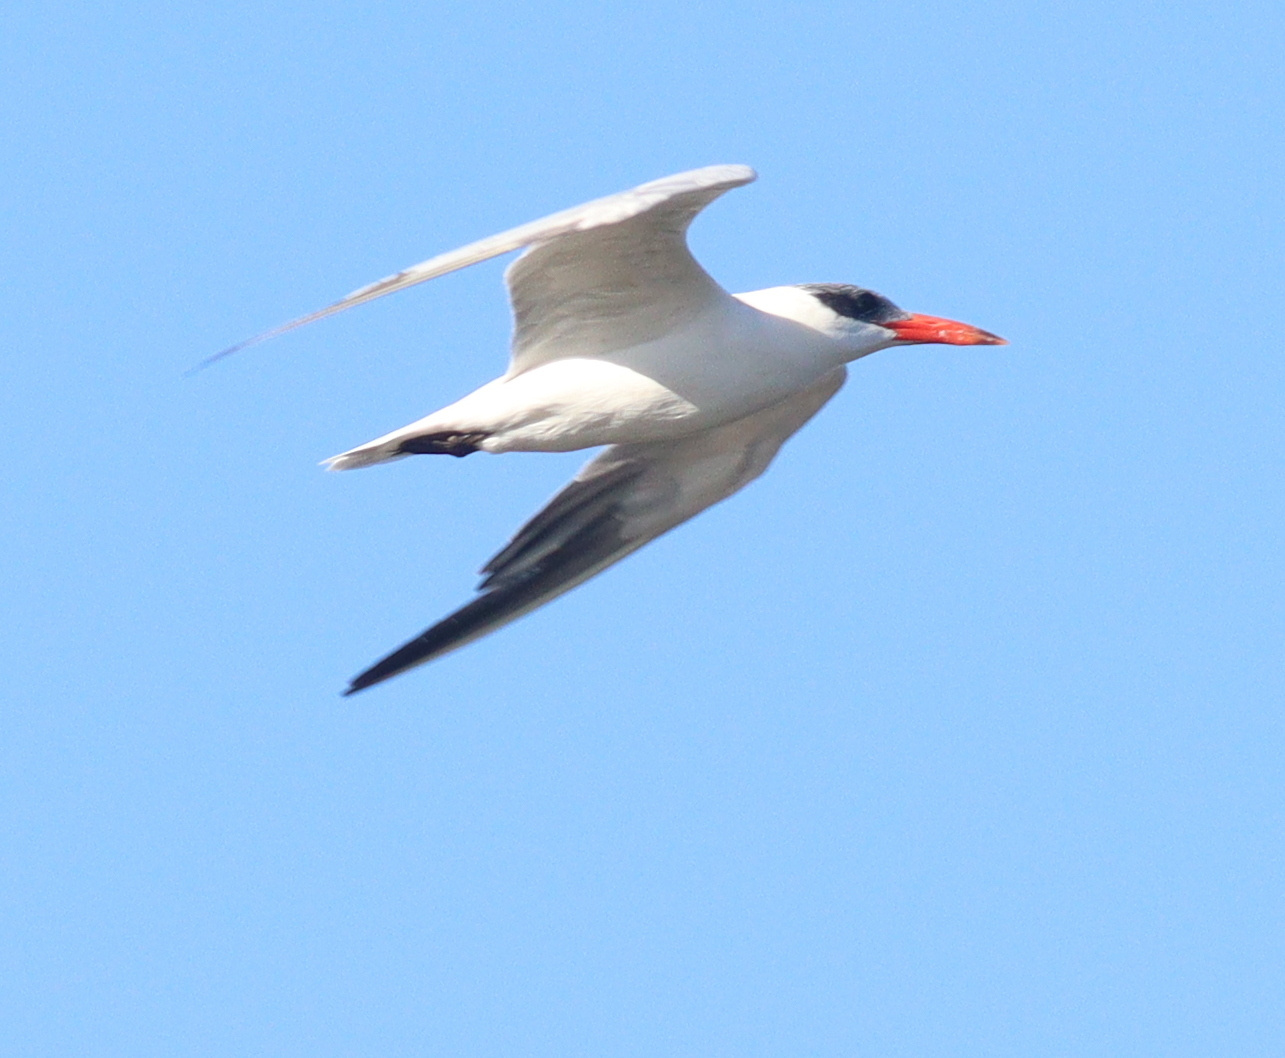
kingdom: Animalia
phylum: Chordata
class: Aves
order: Charadriiformes
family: Laridae
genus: Hydroprogne
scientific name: Hydroprogne caspia
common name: Caspian tern
